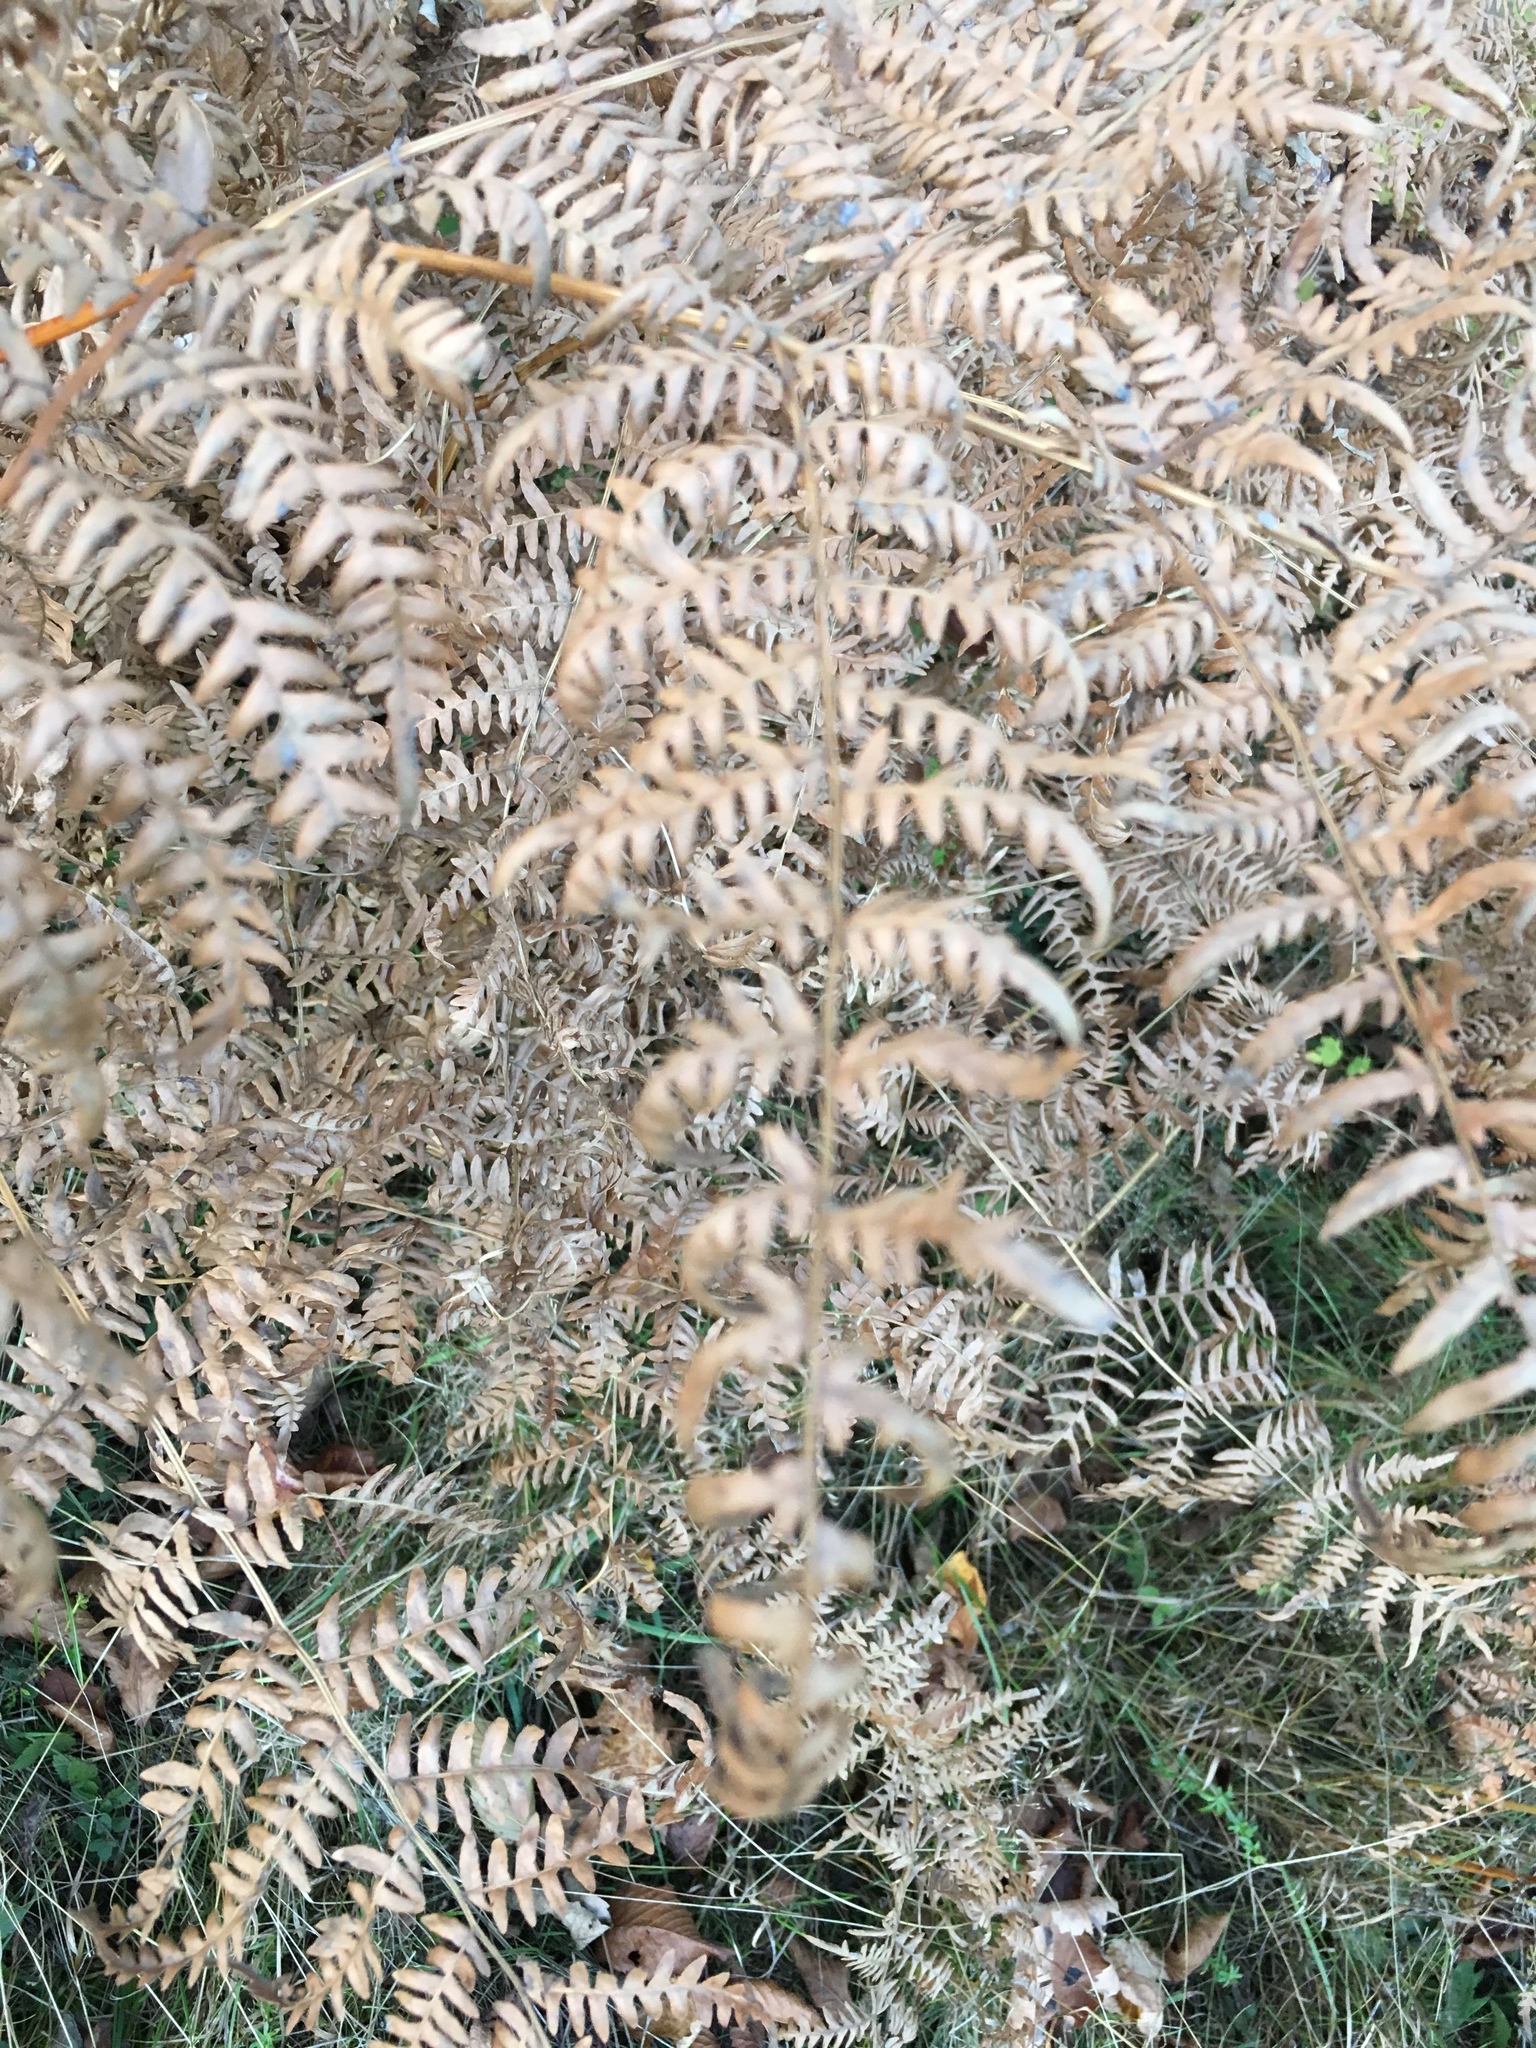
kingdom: Plantae
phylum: Tracheophyta
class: Polypodiopsida
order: Polypodiales
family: Dennstaedtiaceae
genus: Pteridium
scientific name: Pteridium aquilinum
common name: Bracken
